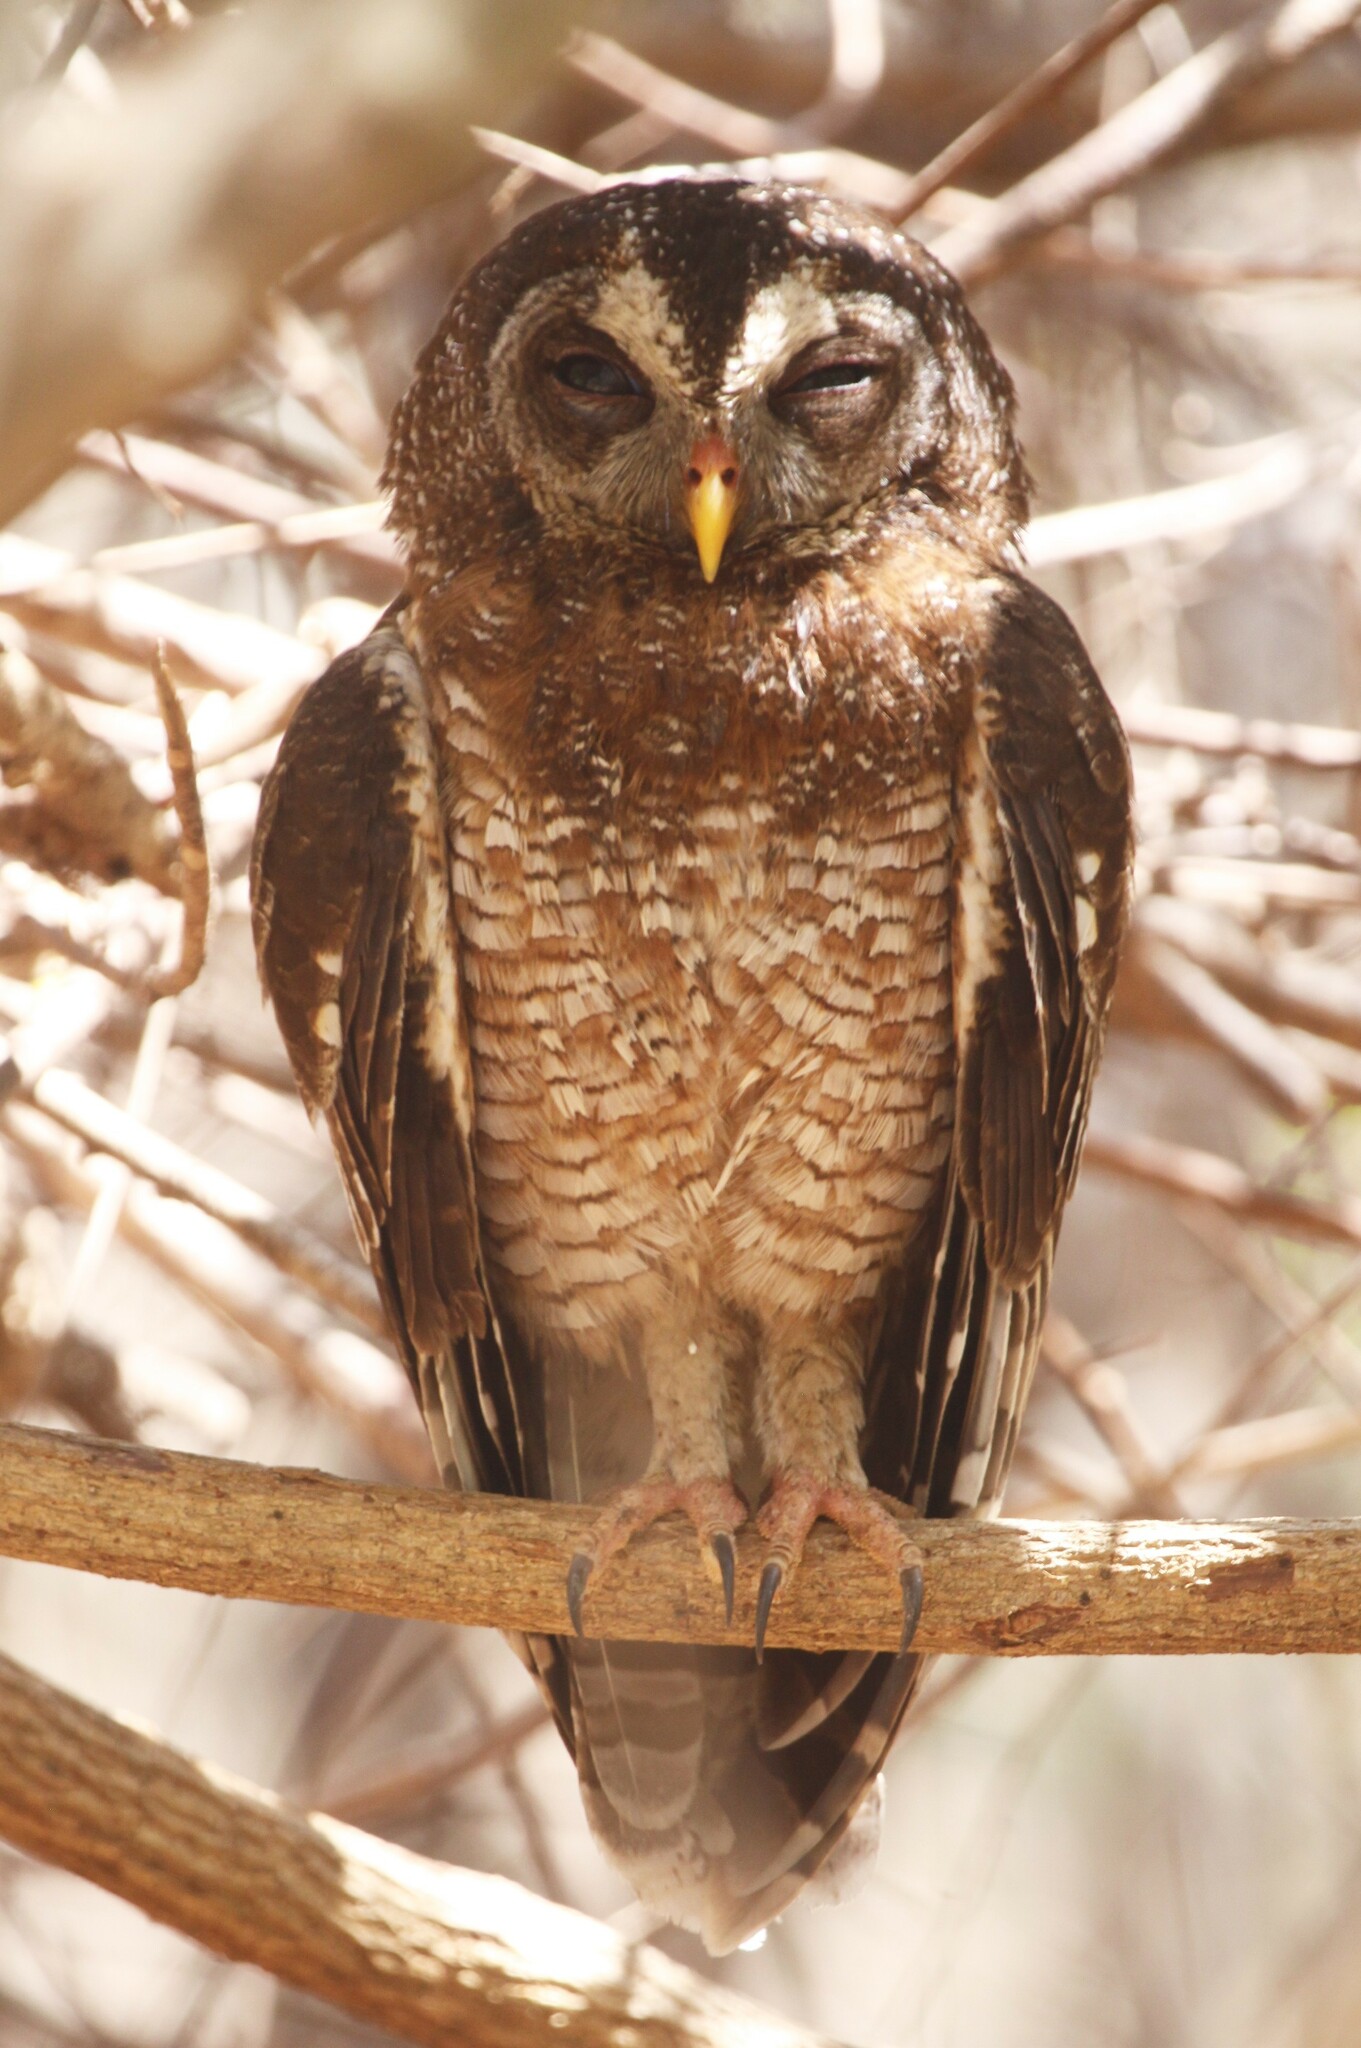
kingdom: Animalia
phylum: Chordata
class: Aves
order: Strigiformes
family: Strigidae
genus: Strix
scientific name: Strix woodfordii
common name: African wood owl
